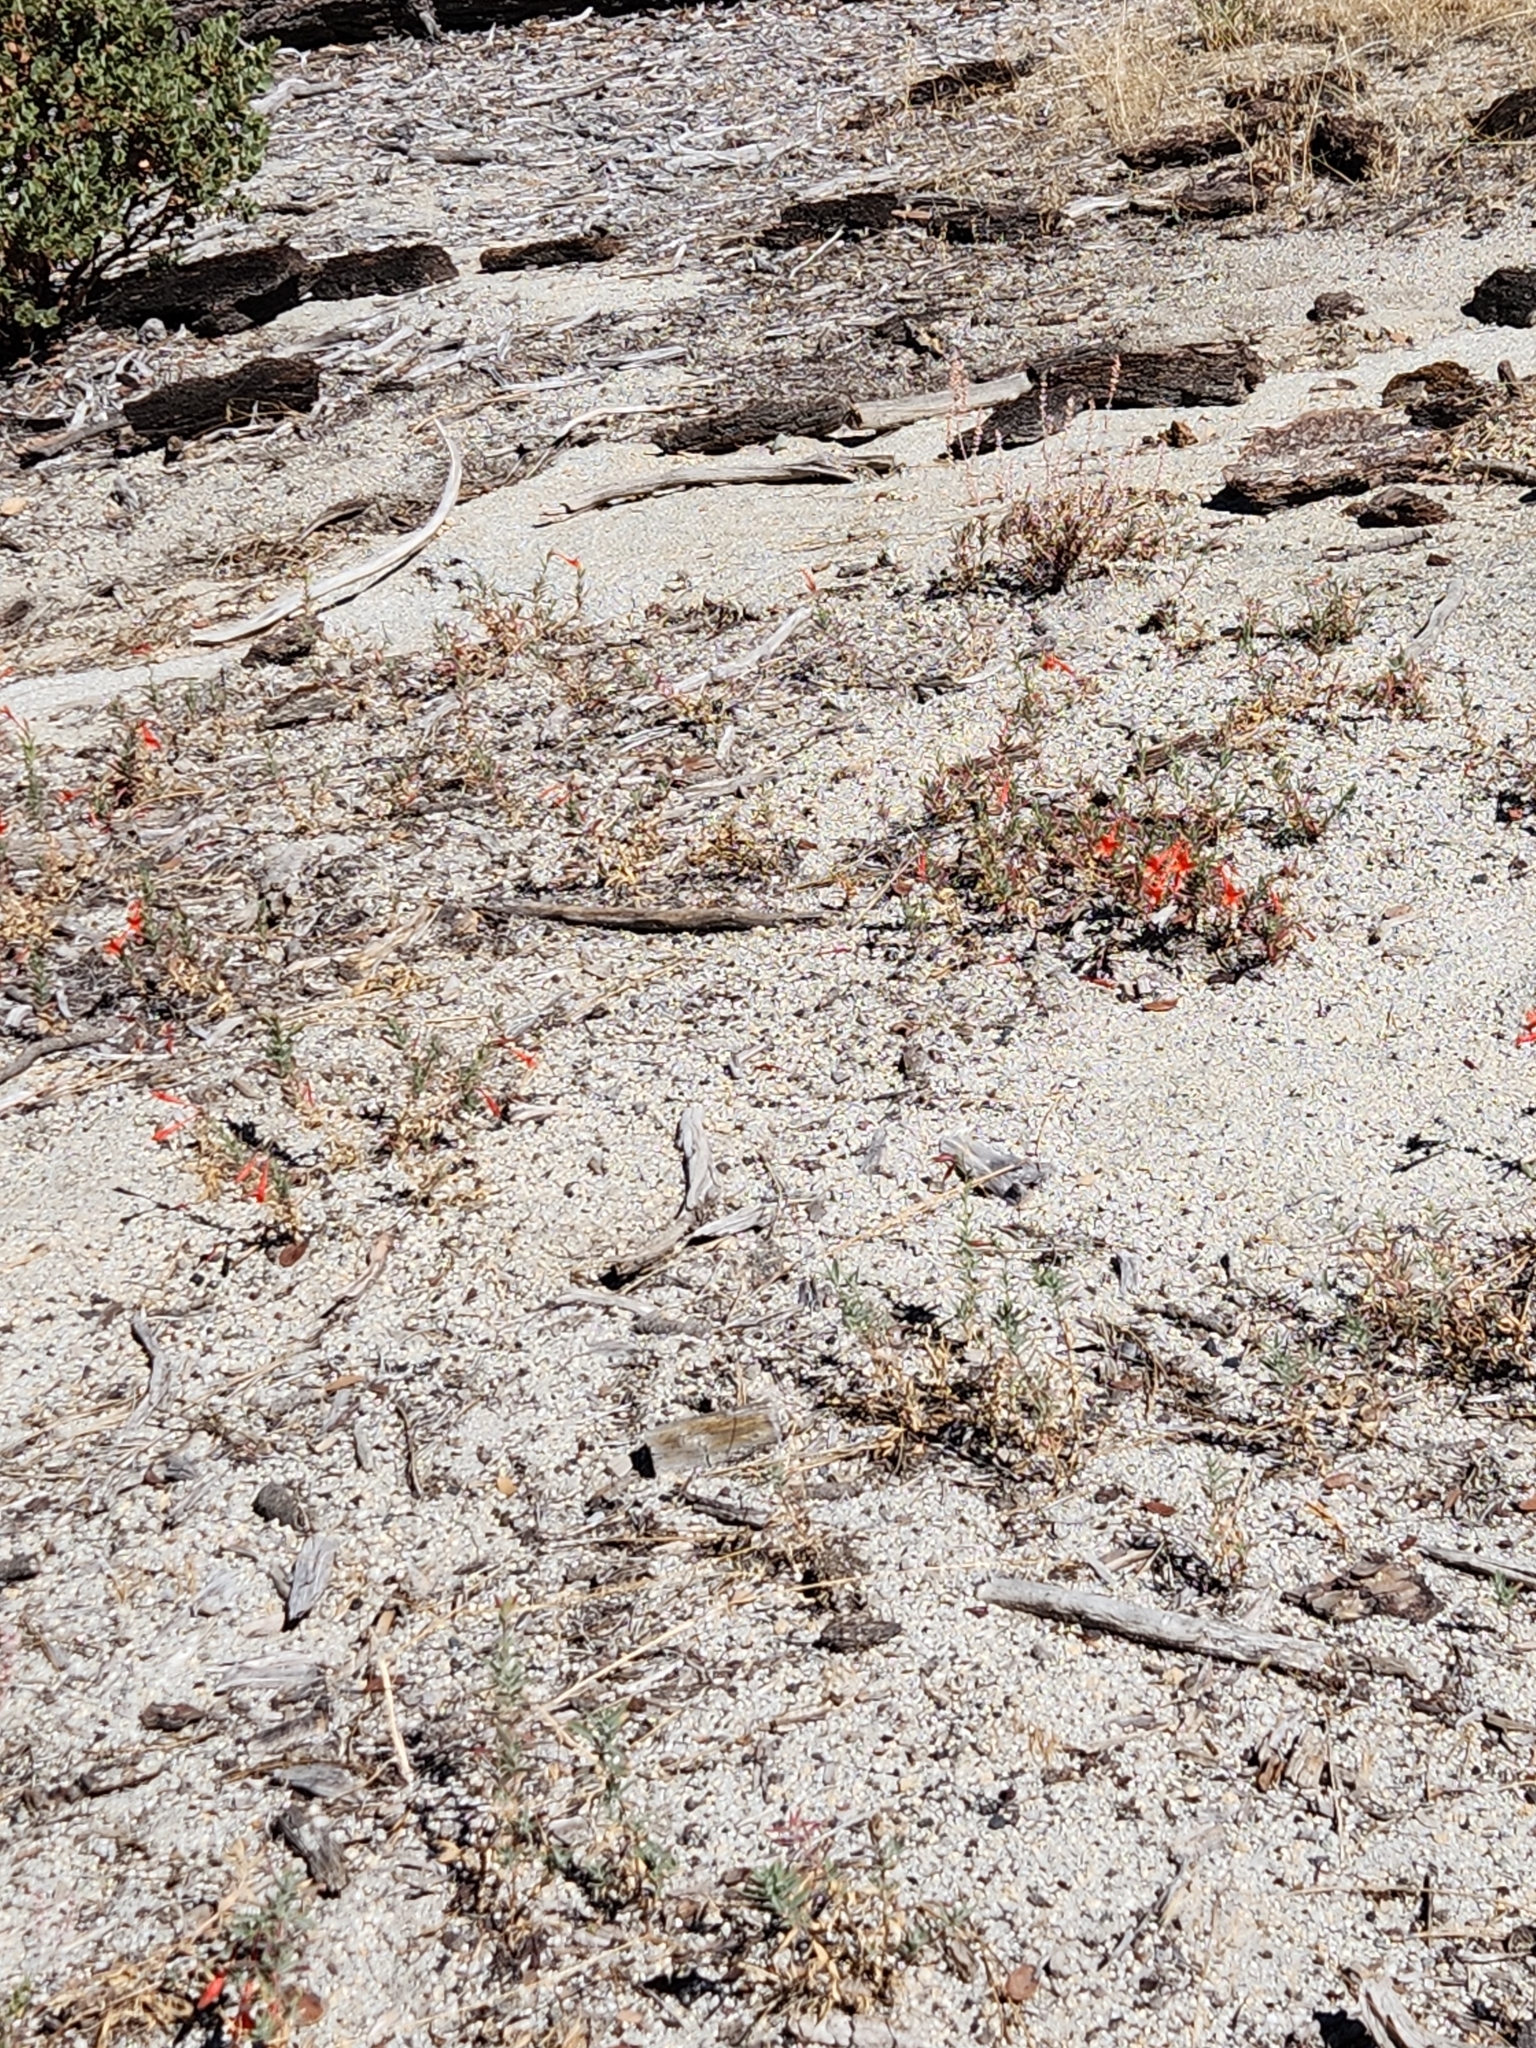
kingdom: Plantae
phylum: Tracheophyta
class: Magnoliopsida
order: Myrtales
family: Onagraceae
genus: Epilobium
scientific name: Epilobium canum
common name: California-fuchsia
